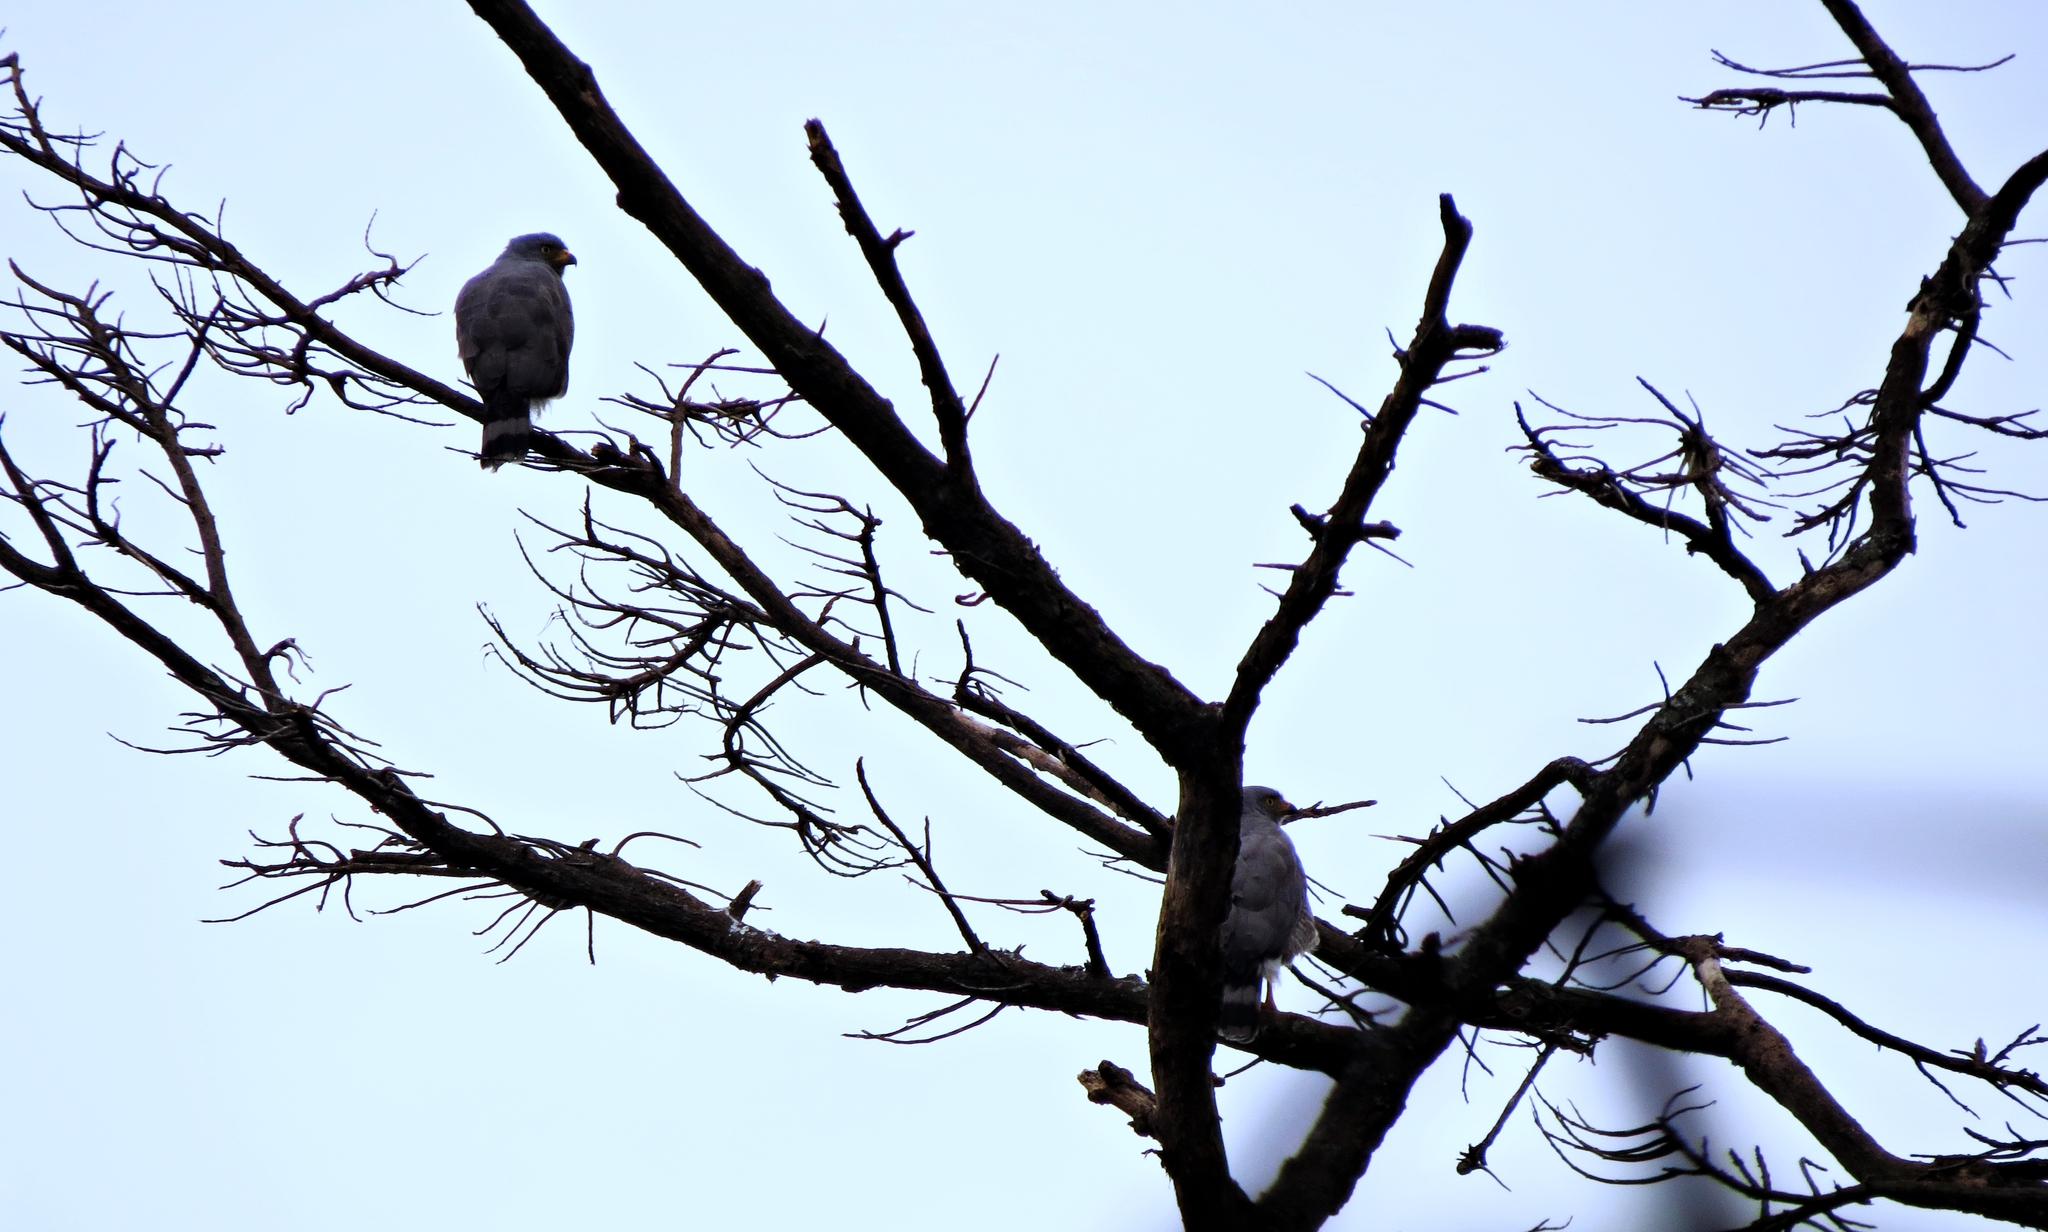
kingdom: Animalia
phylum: Chordata
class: Aves
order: Accipitriformes
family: Accipitridae
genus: Rupornis
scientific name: Rupornis magnirostris
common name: Roadside hawk
